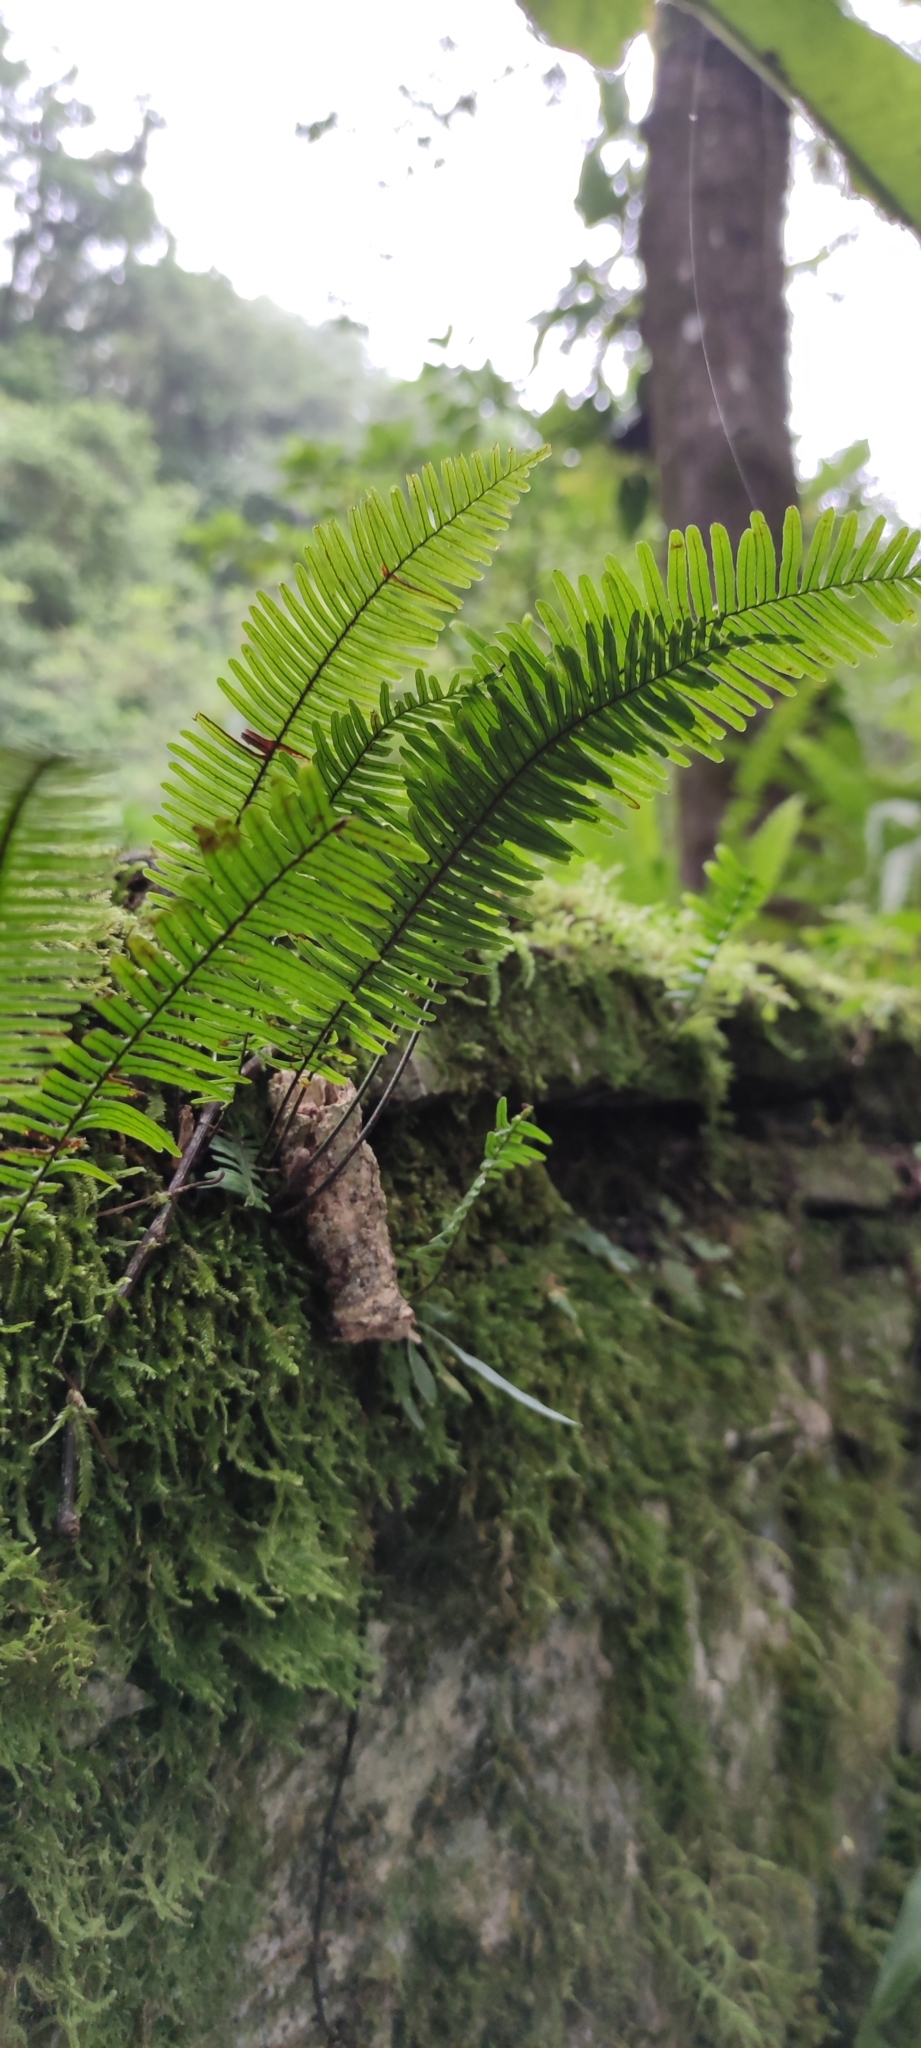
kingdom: Plantae
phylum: Tracheophyta
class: Polypodiopsida
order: Polypodiales
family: Polypodiaceae
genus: Pecluma
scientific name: Pecluma plumula
